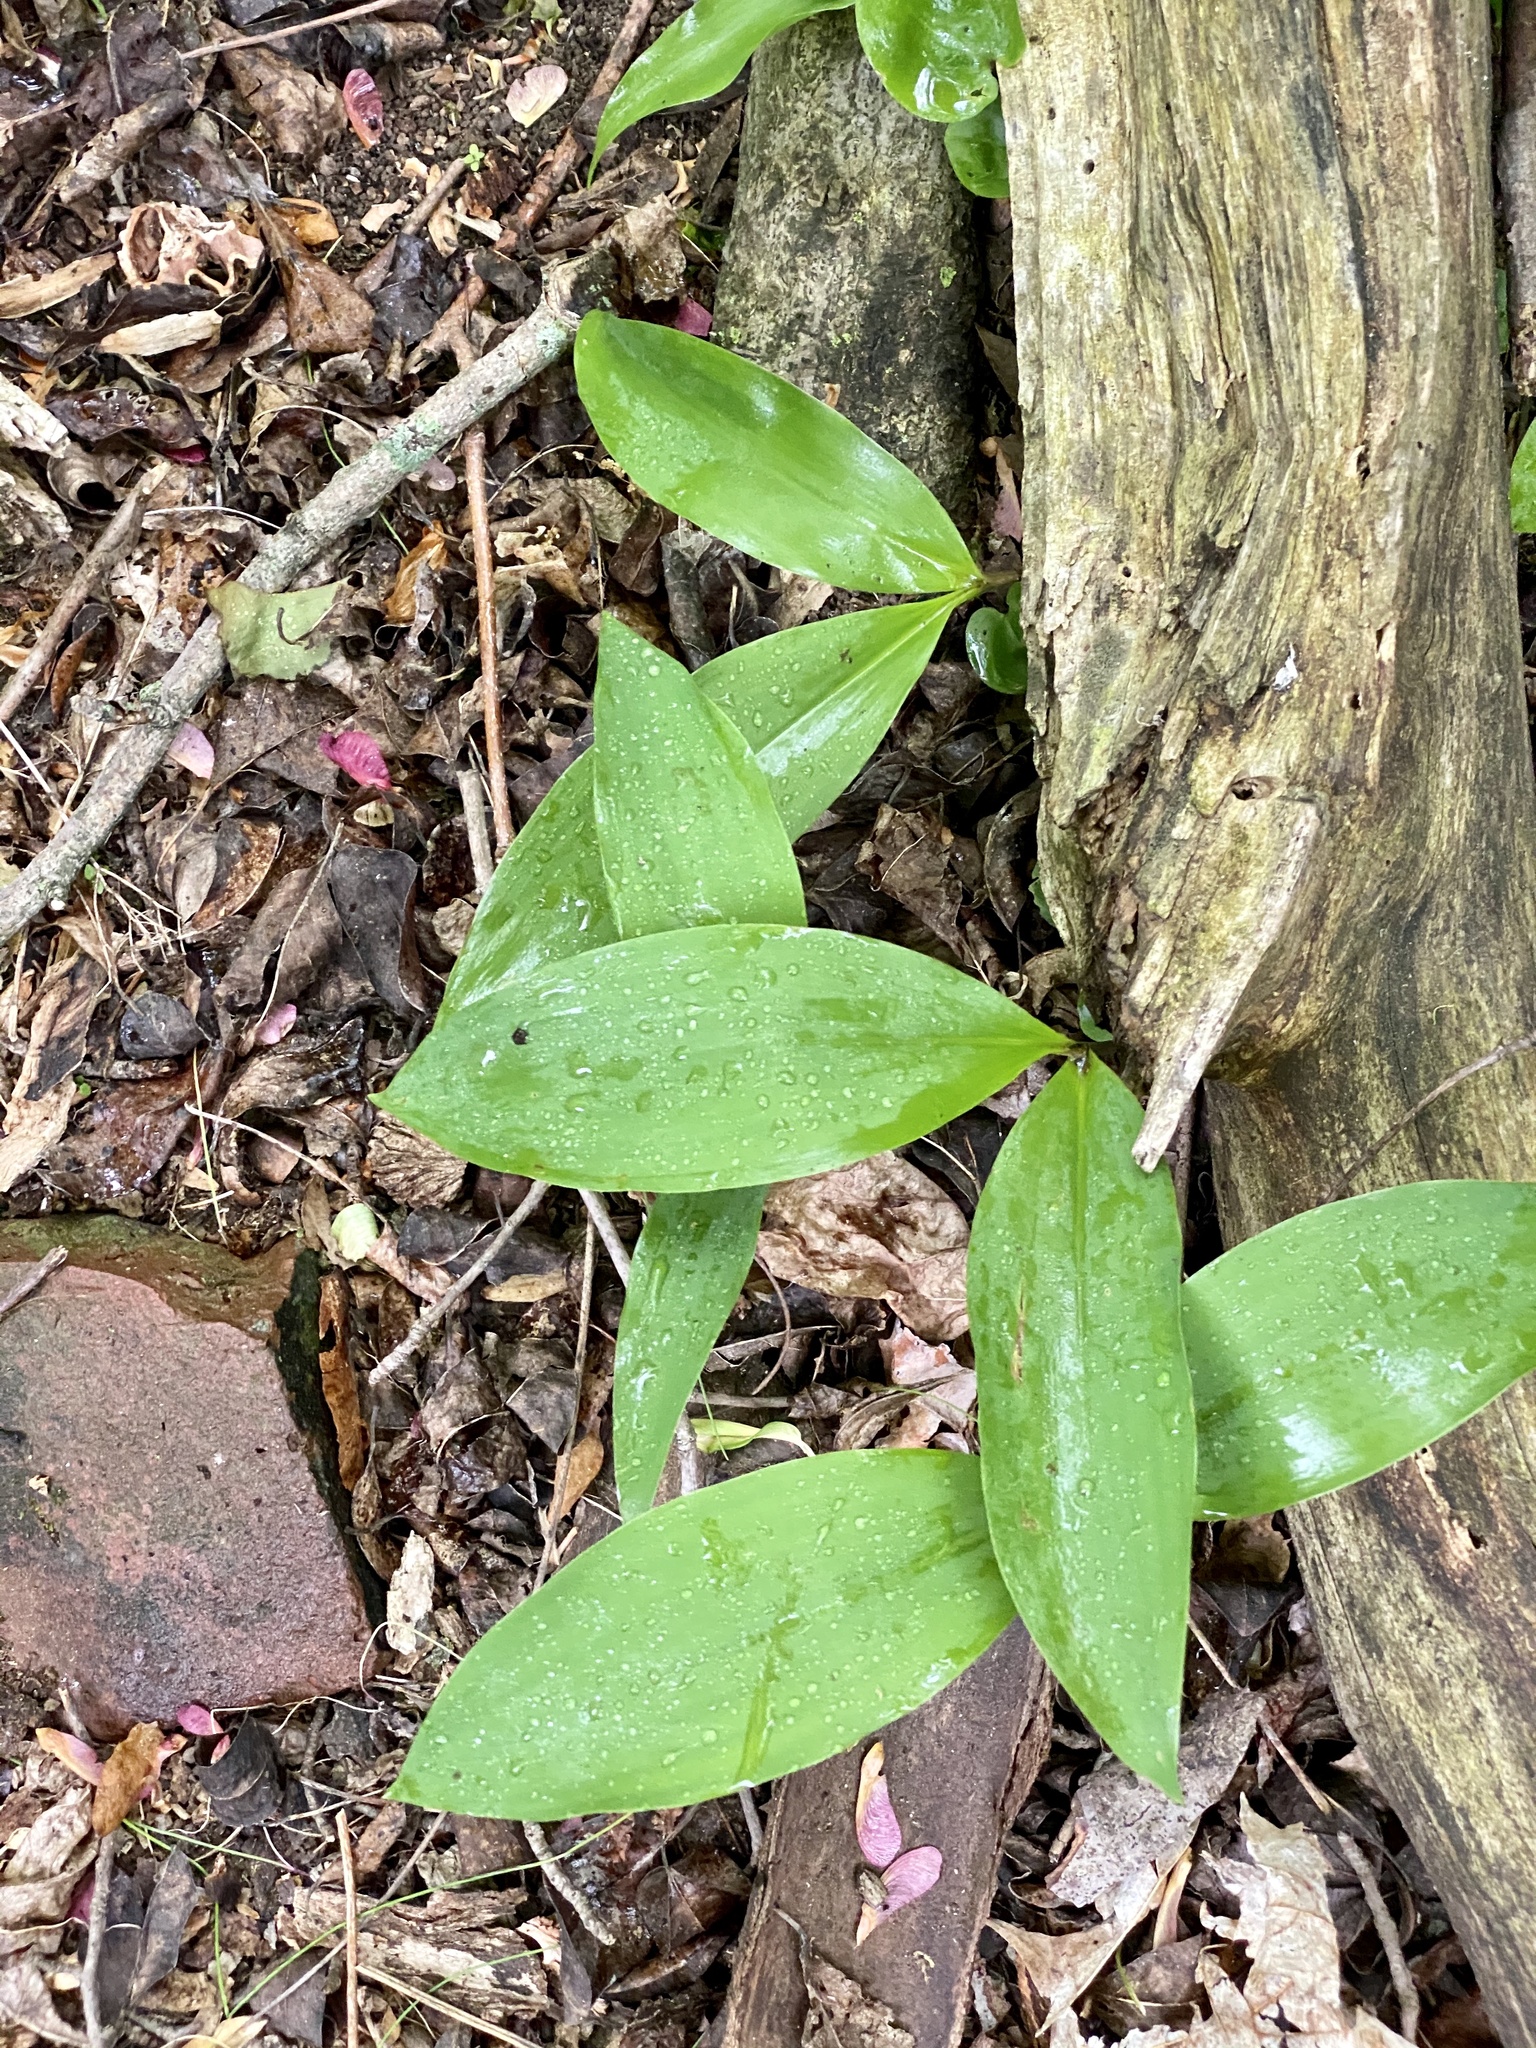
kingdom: Plantae
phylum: Tracheophyta
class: Liliopsida
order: Asparagales
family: Asparagaceae
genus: Convallaria
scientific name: Convallaria majalis
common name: Lily-of-the-valley
